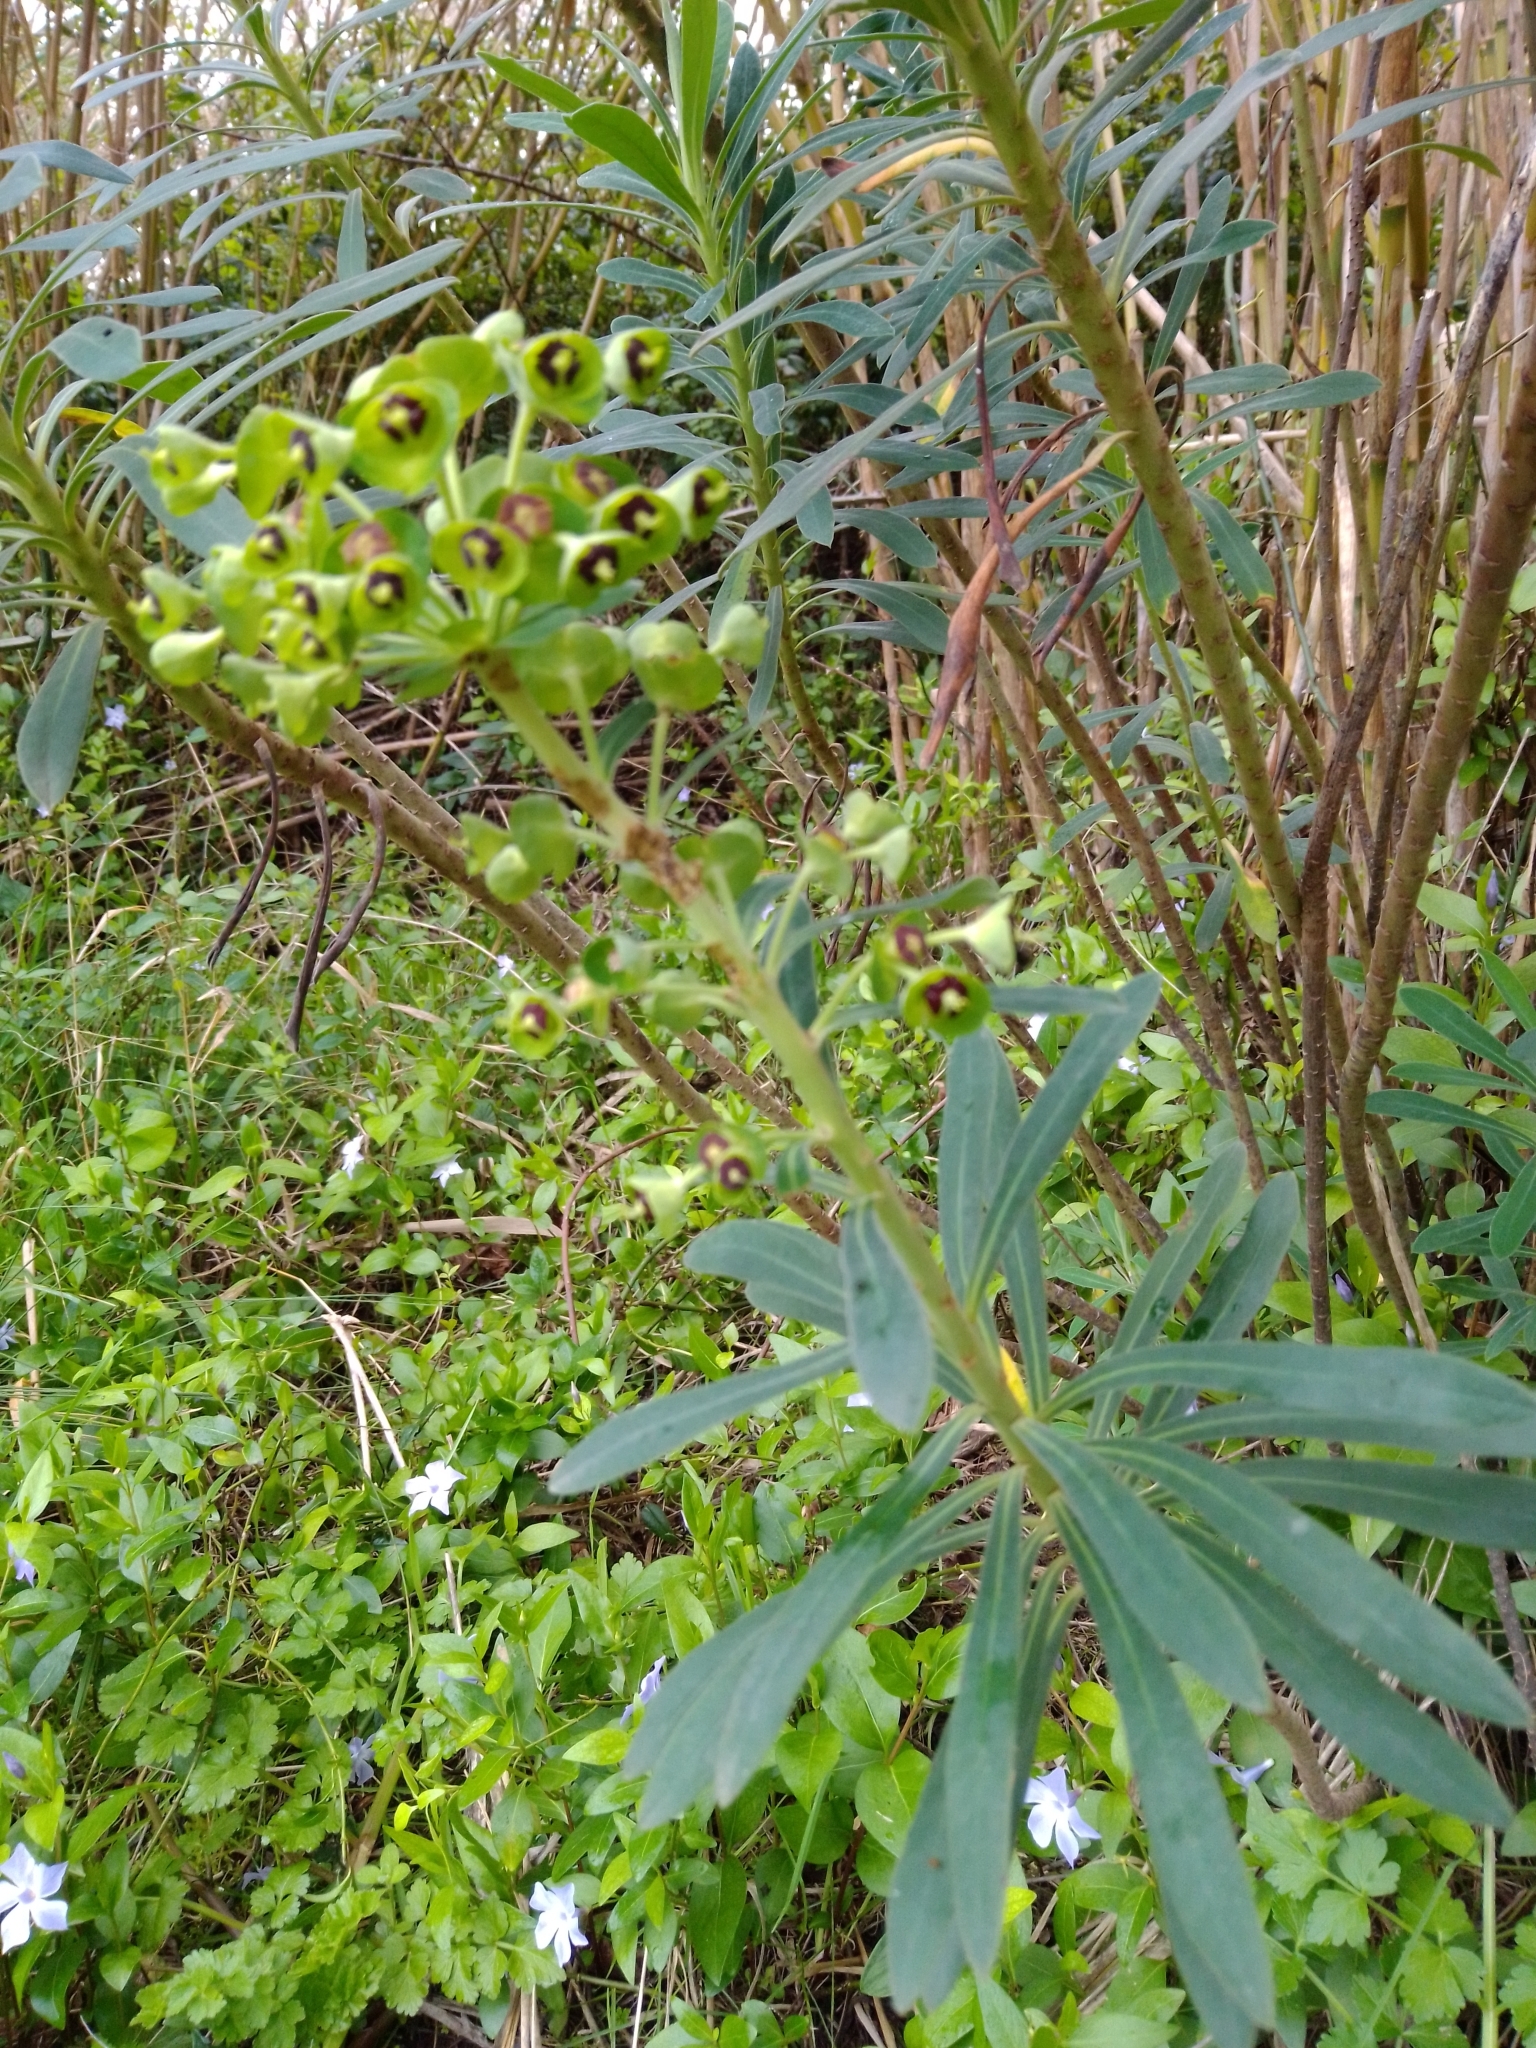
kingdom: Plantae
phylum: Tracheophyta
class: Magnoliopsida
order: Malpighiales
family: Euphorbiaceae
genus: Euphorbia
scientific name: Euphorbia characias
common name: Mediterranean spurge
